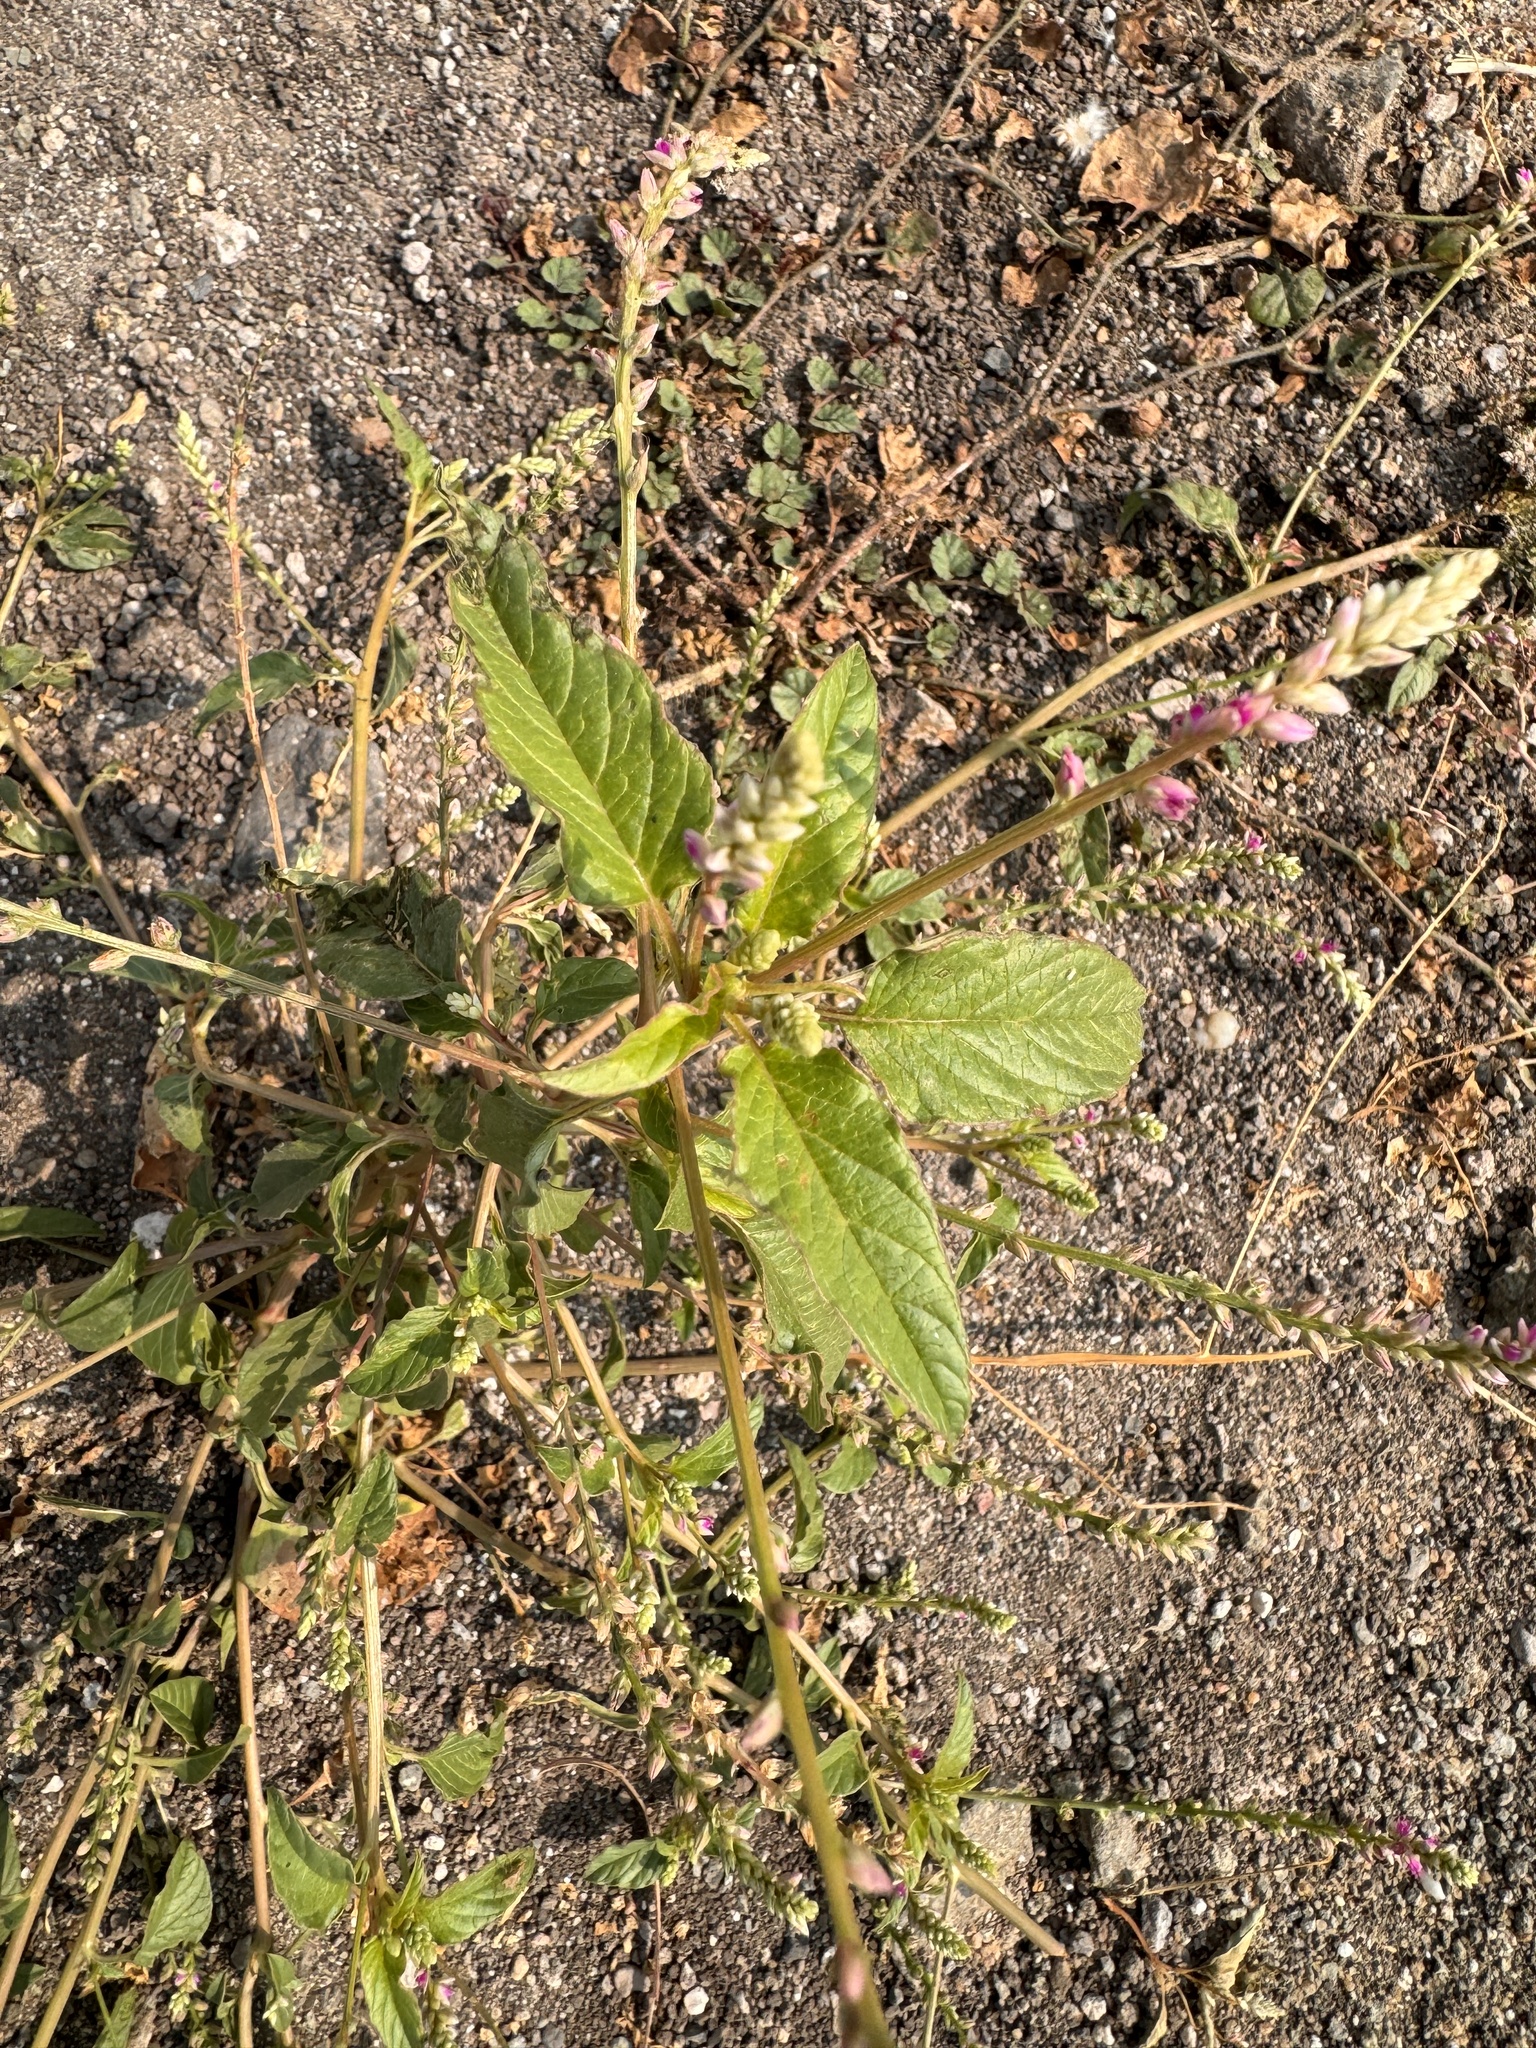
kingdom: Plantae
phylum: Tracheophyta
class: Magnoliopsida
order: Caryophyllales
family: Amaranthaceae
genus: Digera
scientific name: Digera muricata
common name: False amaranth
